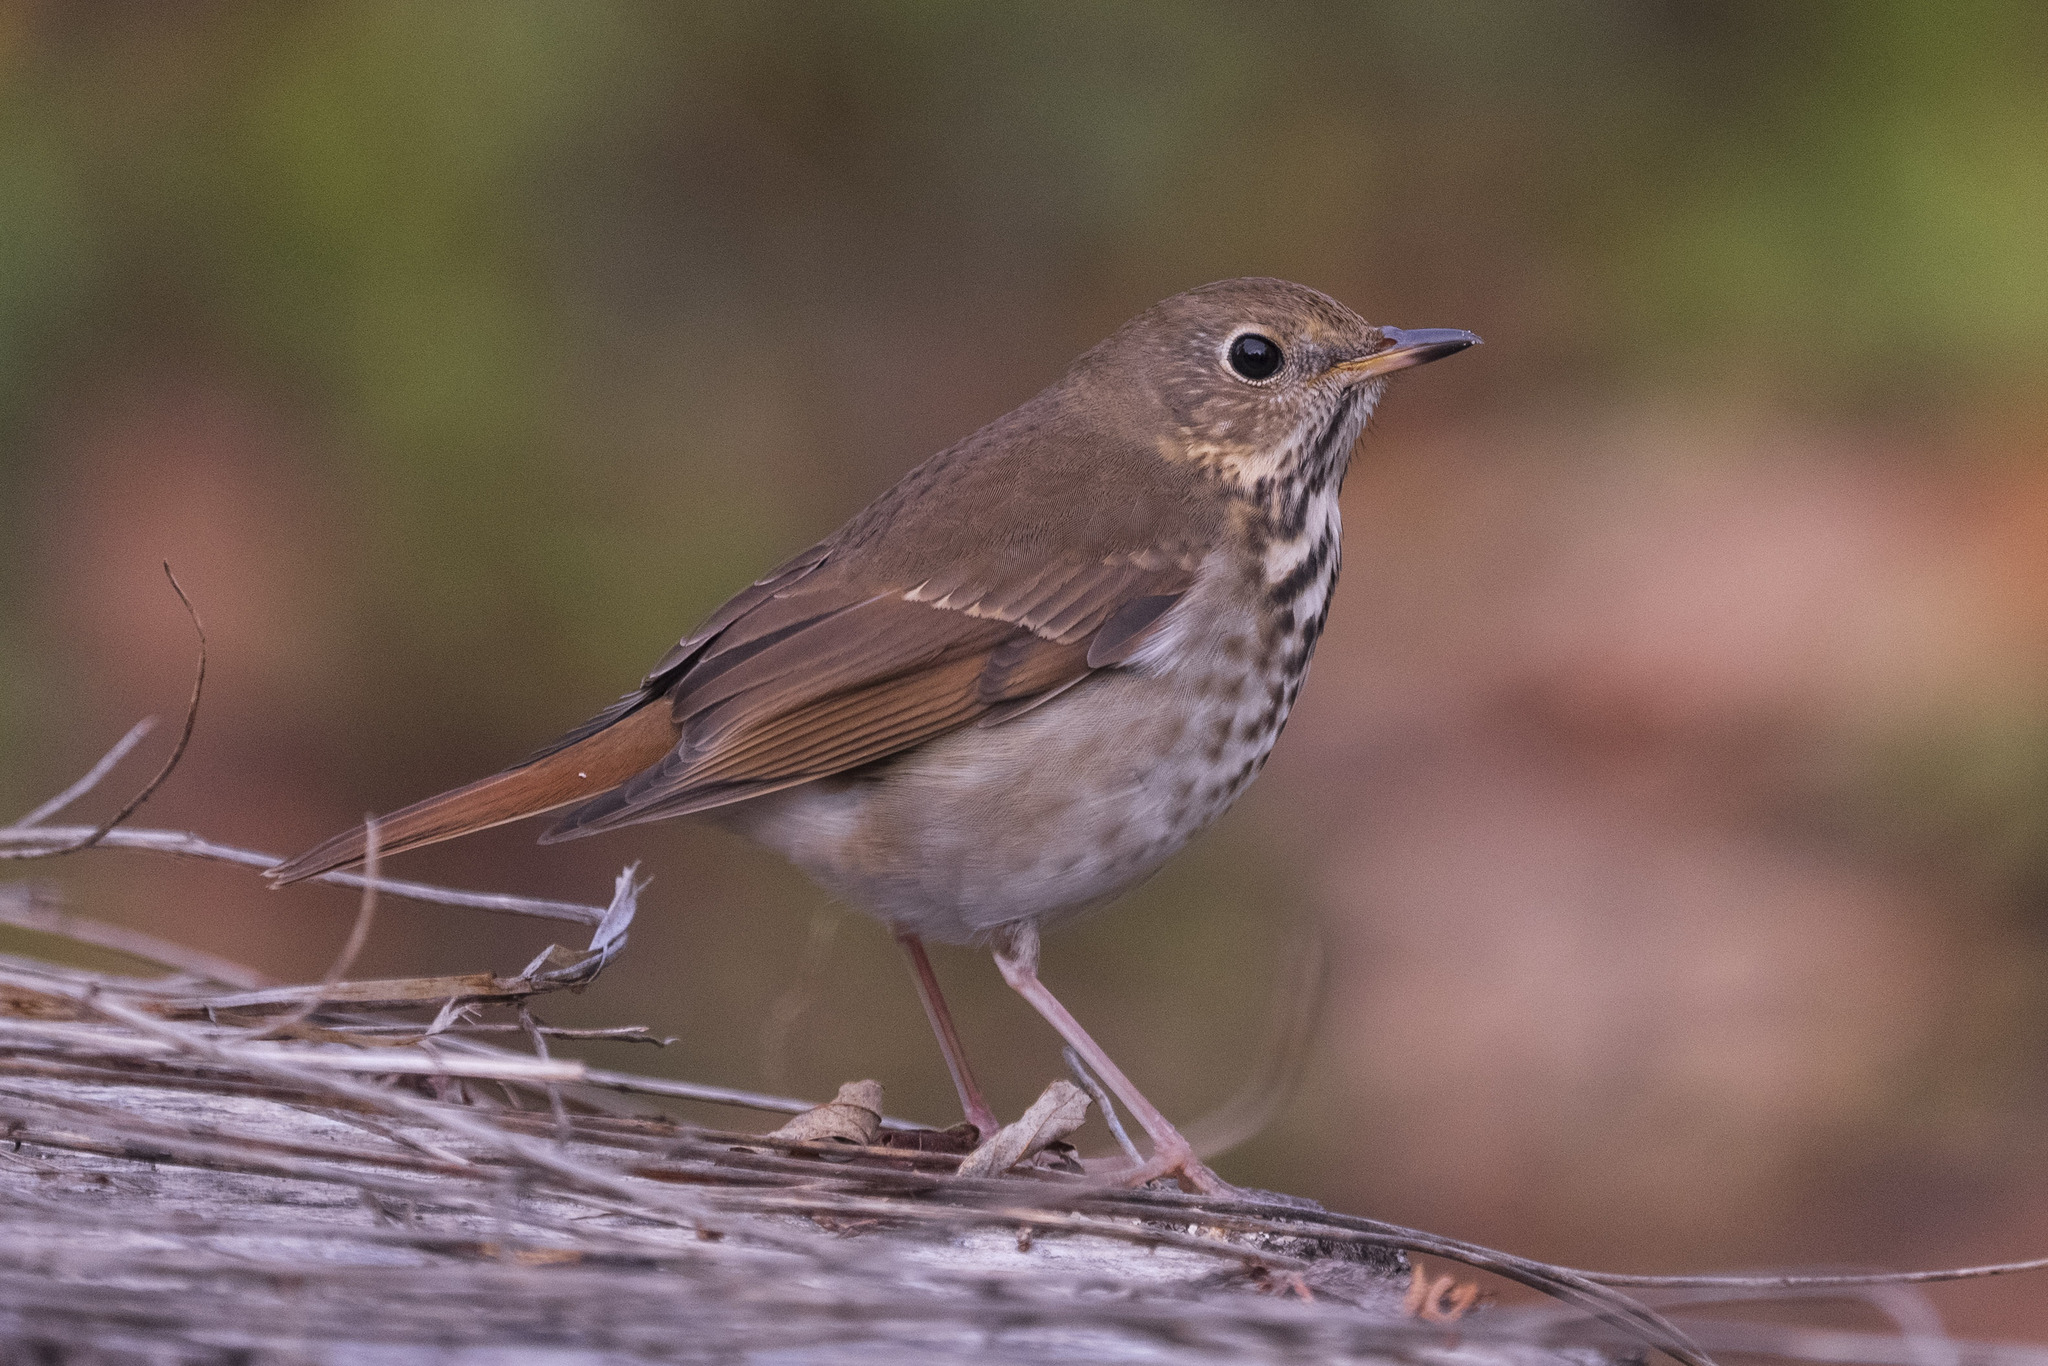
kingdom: Animalia
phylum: Chordata
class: Aves
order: Passeriformes
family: Turdidae
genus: Catharus
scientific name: Catharus guttatus
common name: Hermit thrush
